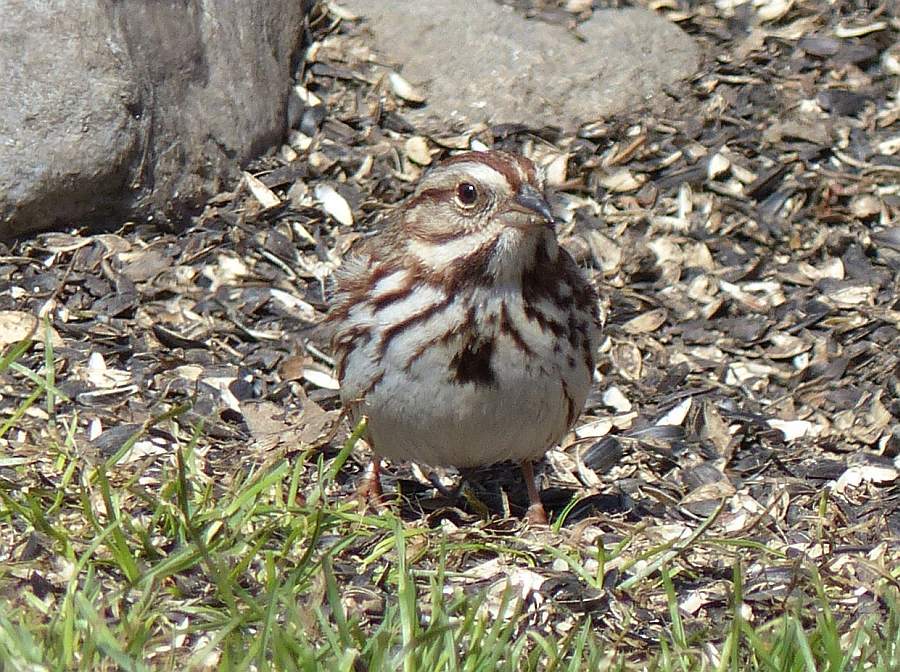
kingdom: Animalia
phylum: Chordata
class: Aves
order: Passeriformes
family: Passerellidae
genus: Melospiza
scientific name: Melospiza melodia
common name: Song sparrow
